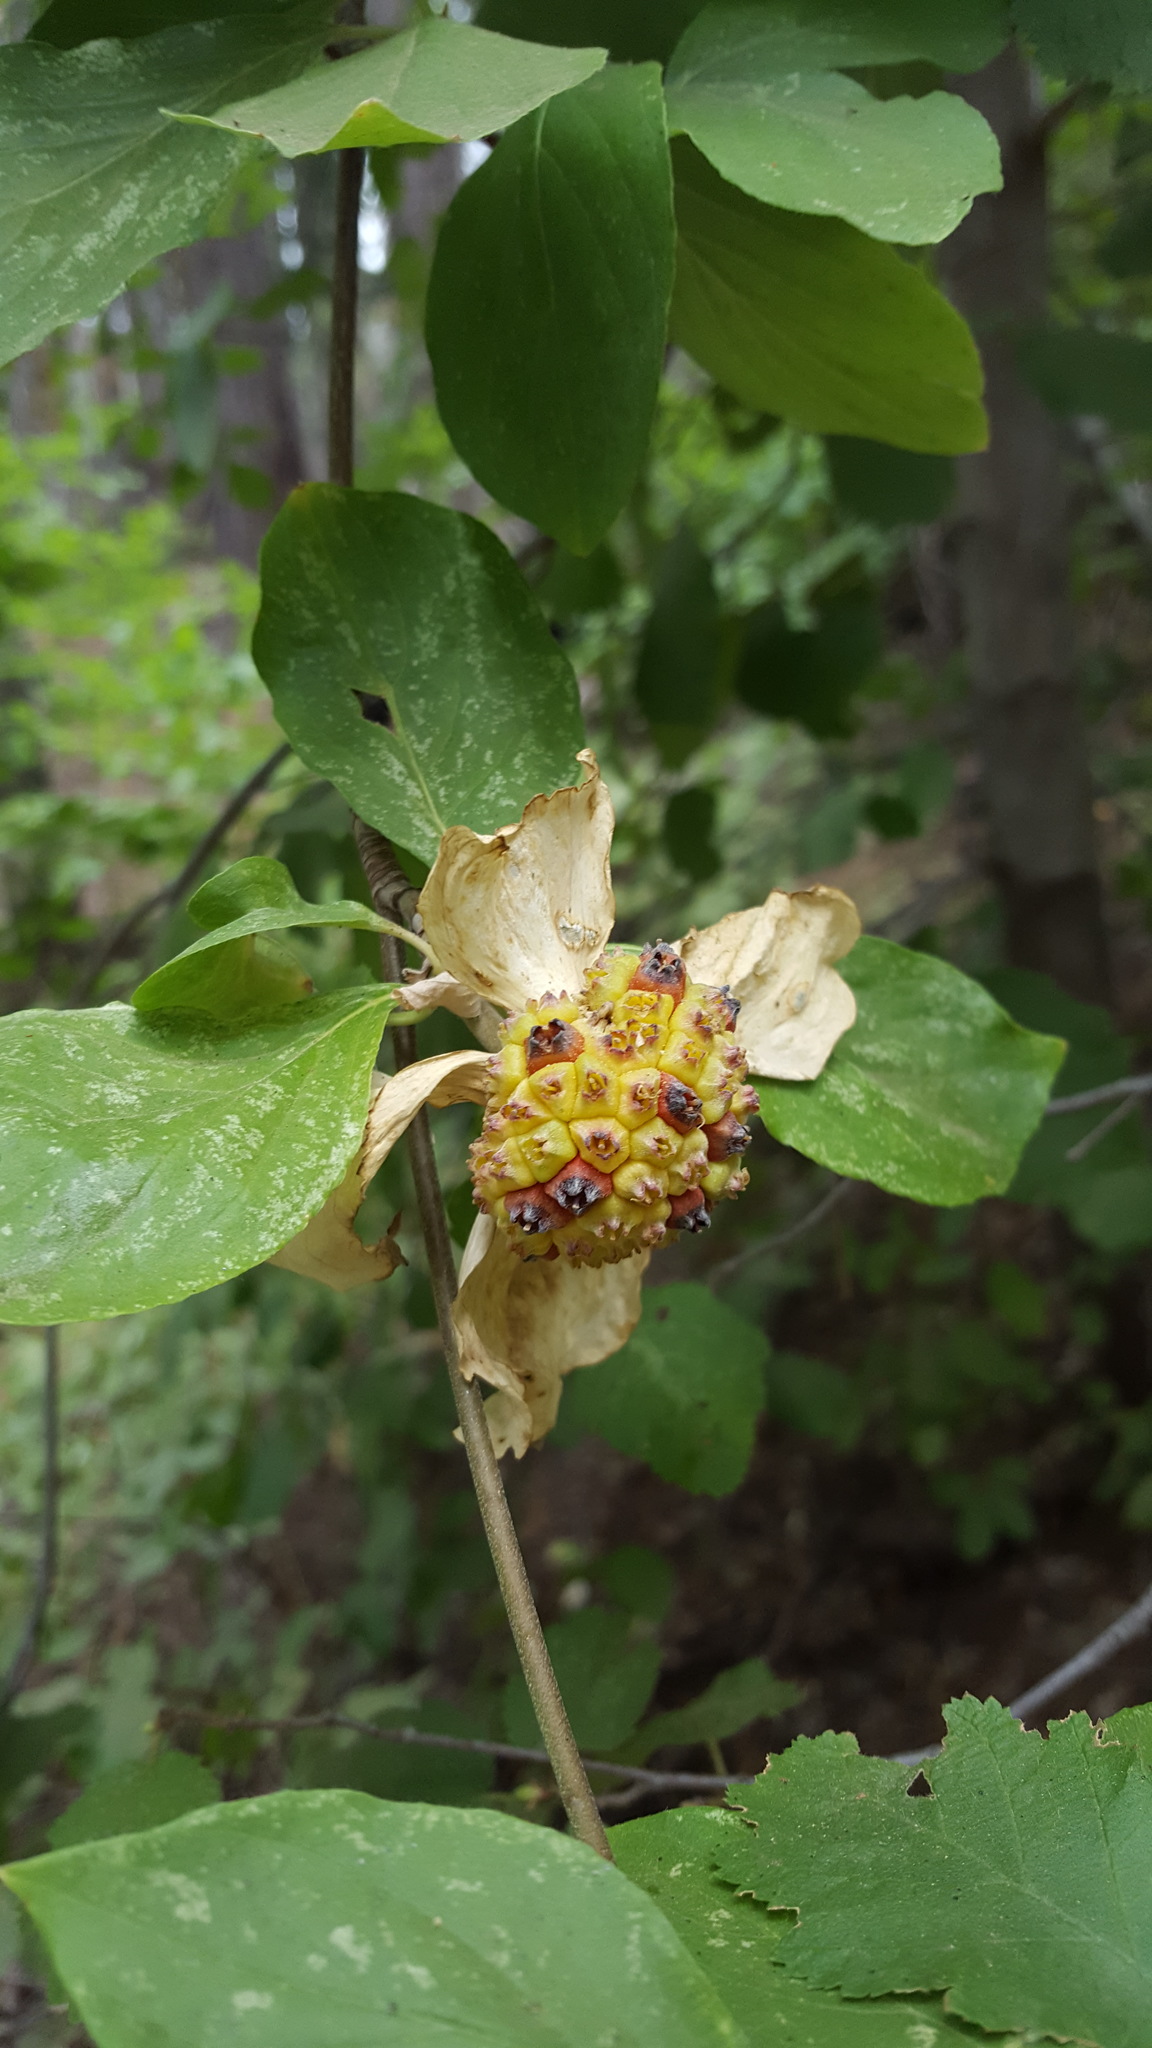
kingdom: Plantae
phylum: Tracheophyta
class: Magnoliopsida
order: Cornales
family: Cornaceae
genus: Cornus
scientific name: Cornus nuttallii
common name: Pacific dogwood
